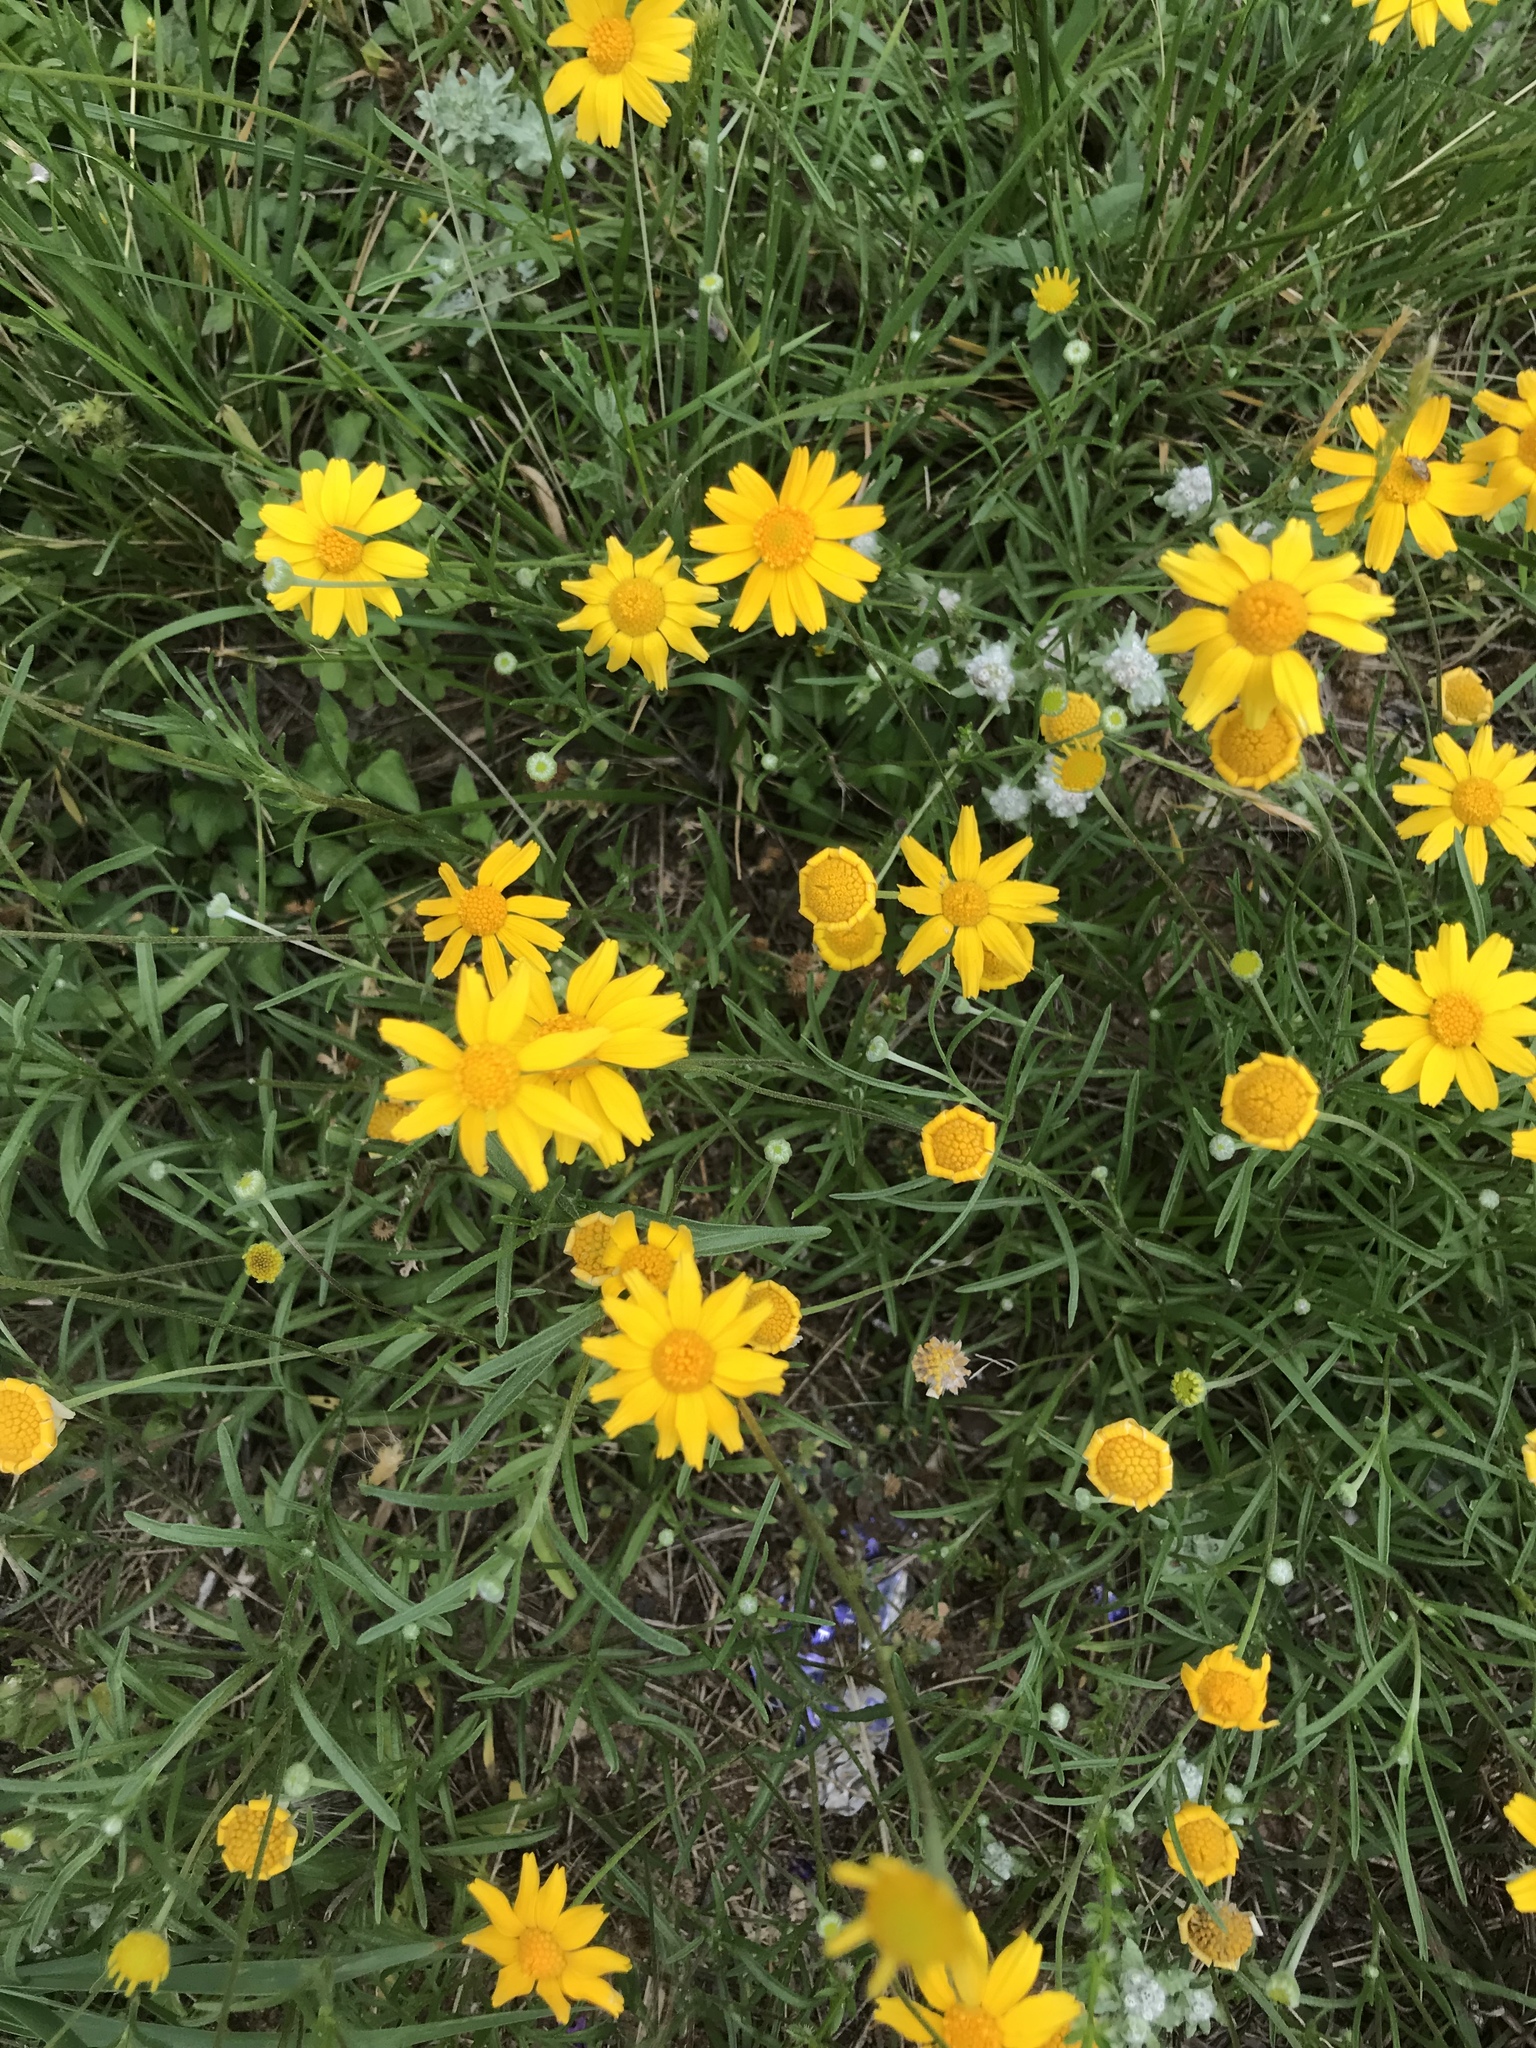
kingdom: Plantae
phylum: Tracheophyta
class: Magnoliopsida
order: Asterales
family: Asteraceae
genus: Tetraneuris
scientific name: Tetraneuris scaposa
